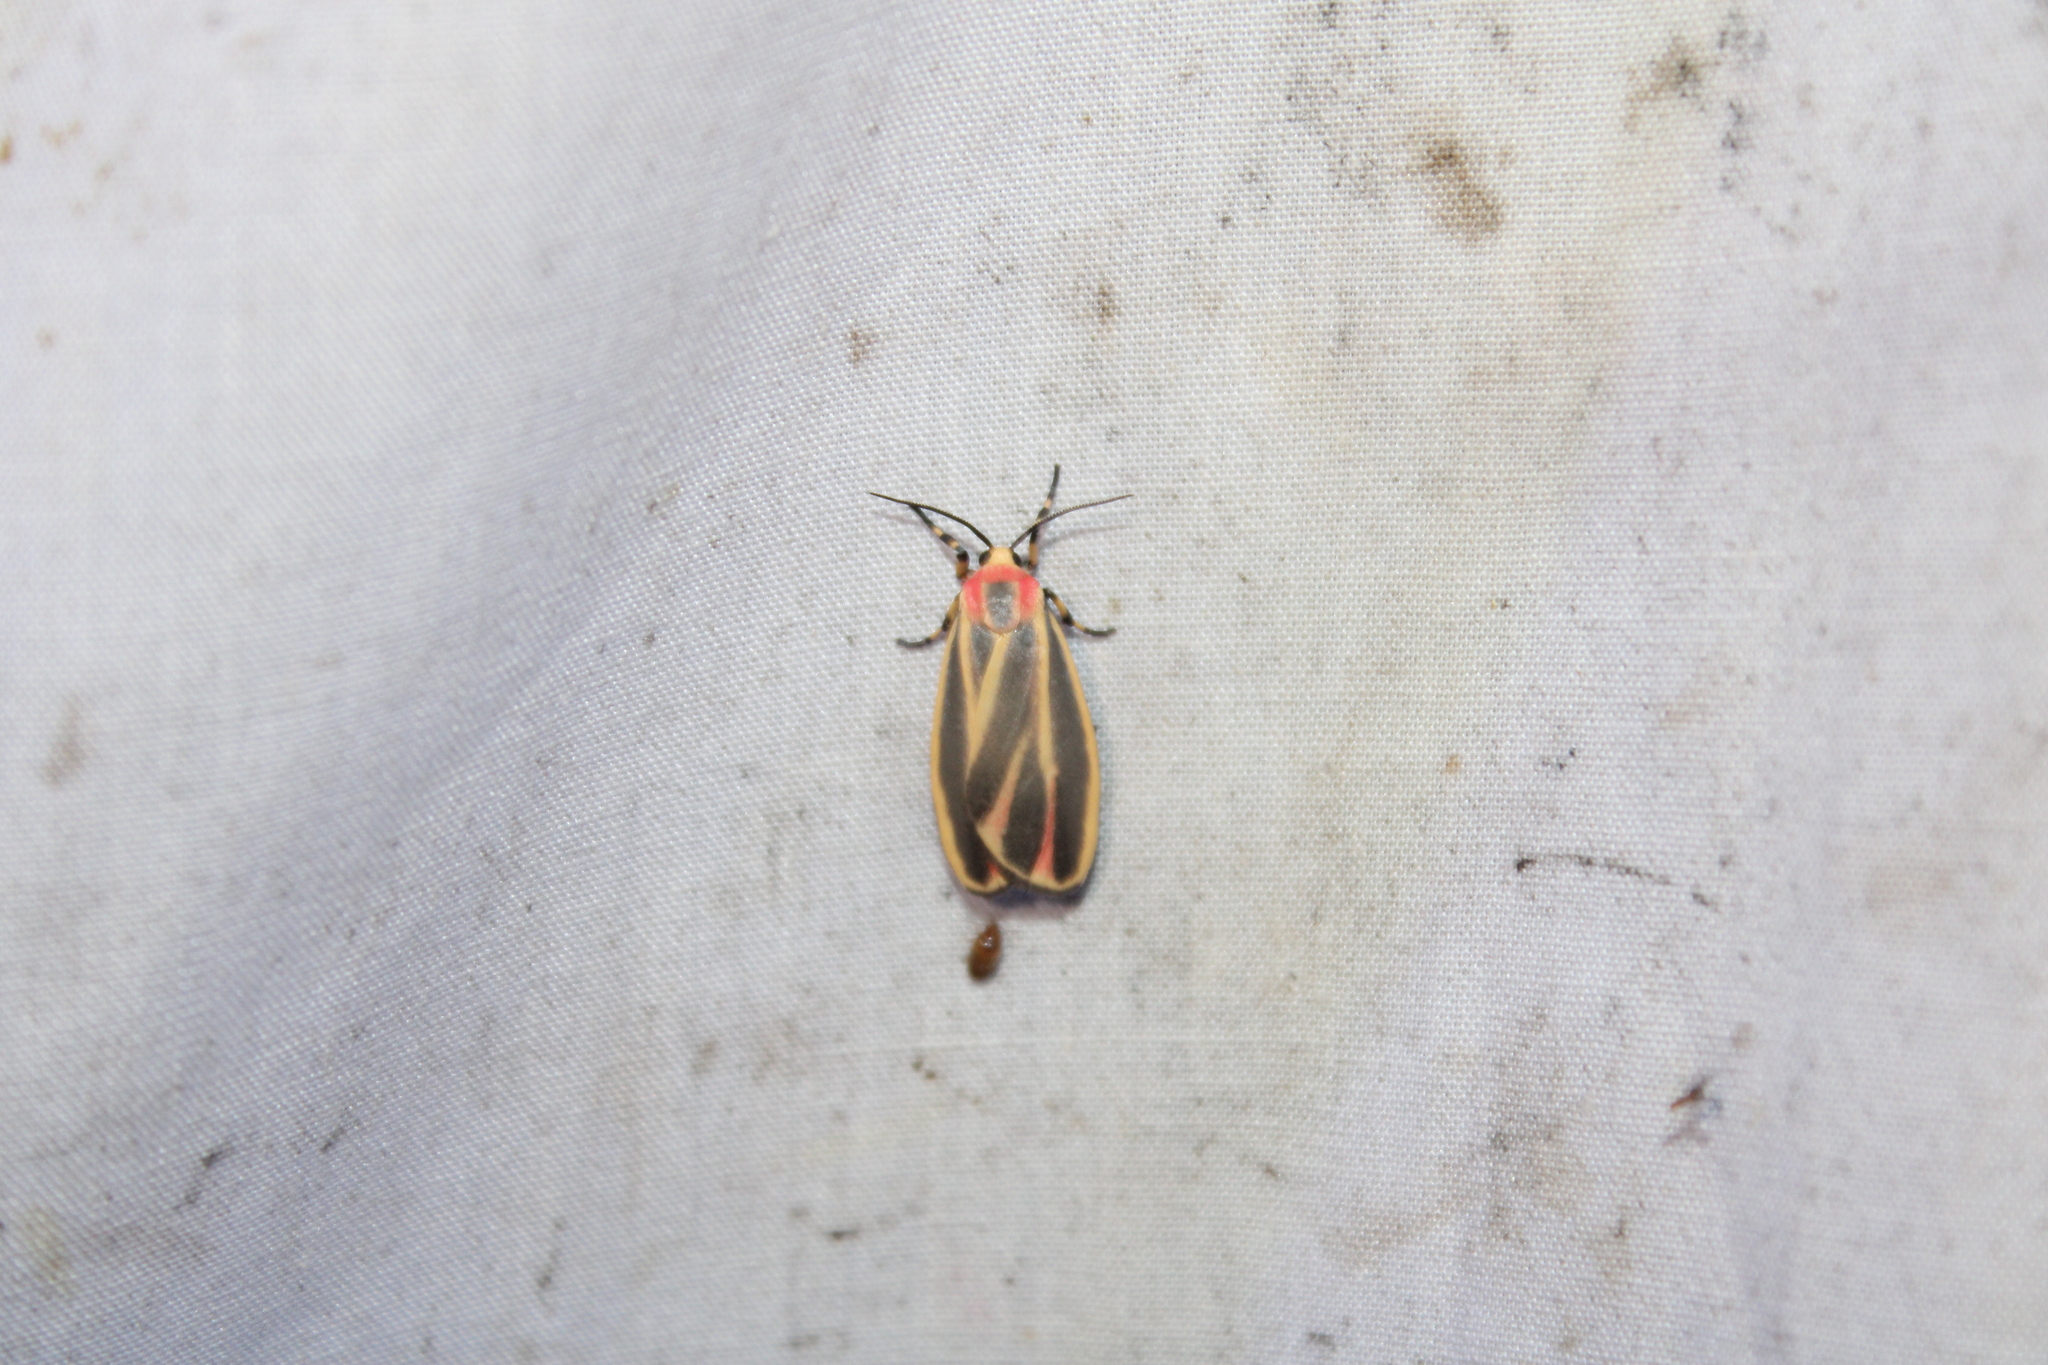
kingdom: Animalia
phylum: Arthropoda
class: Insecta
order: Lepidoptera
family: Erebidae
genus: Hypoprepia
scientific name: Hypoprepia fucosa
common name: Painted lichen moth
